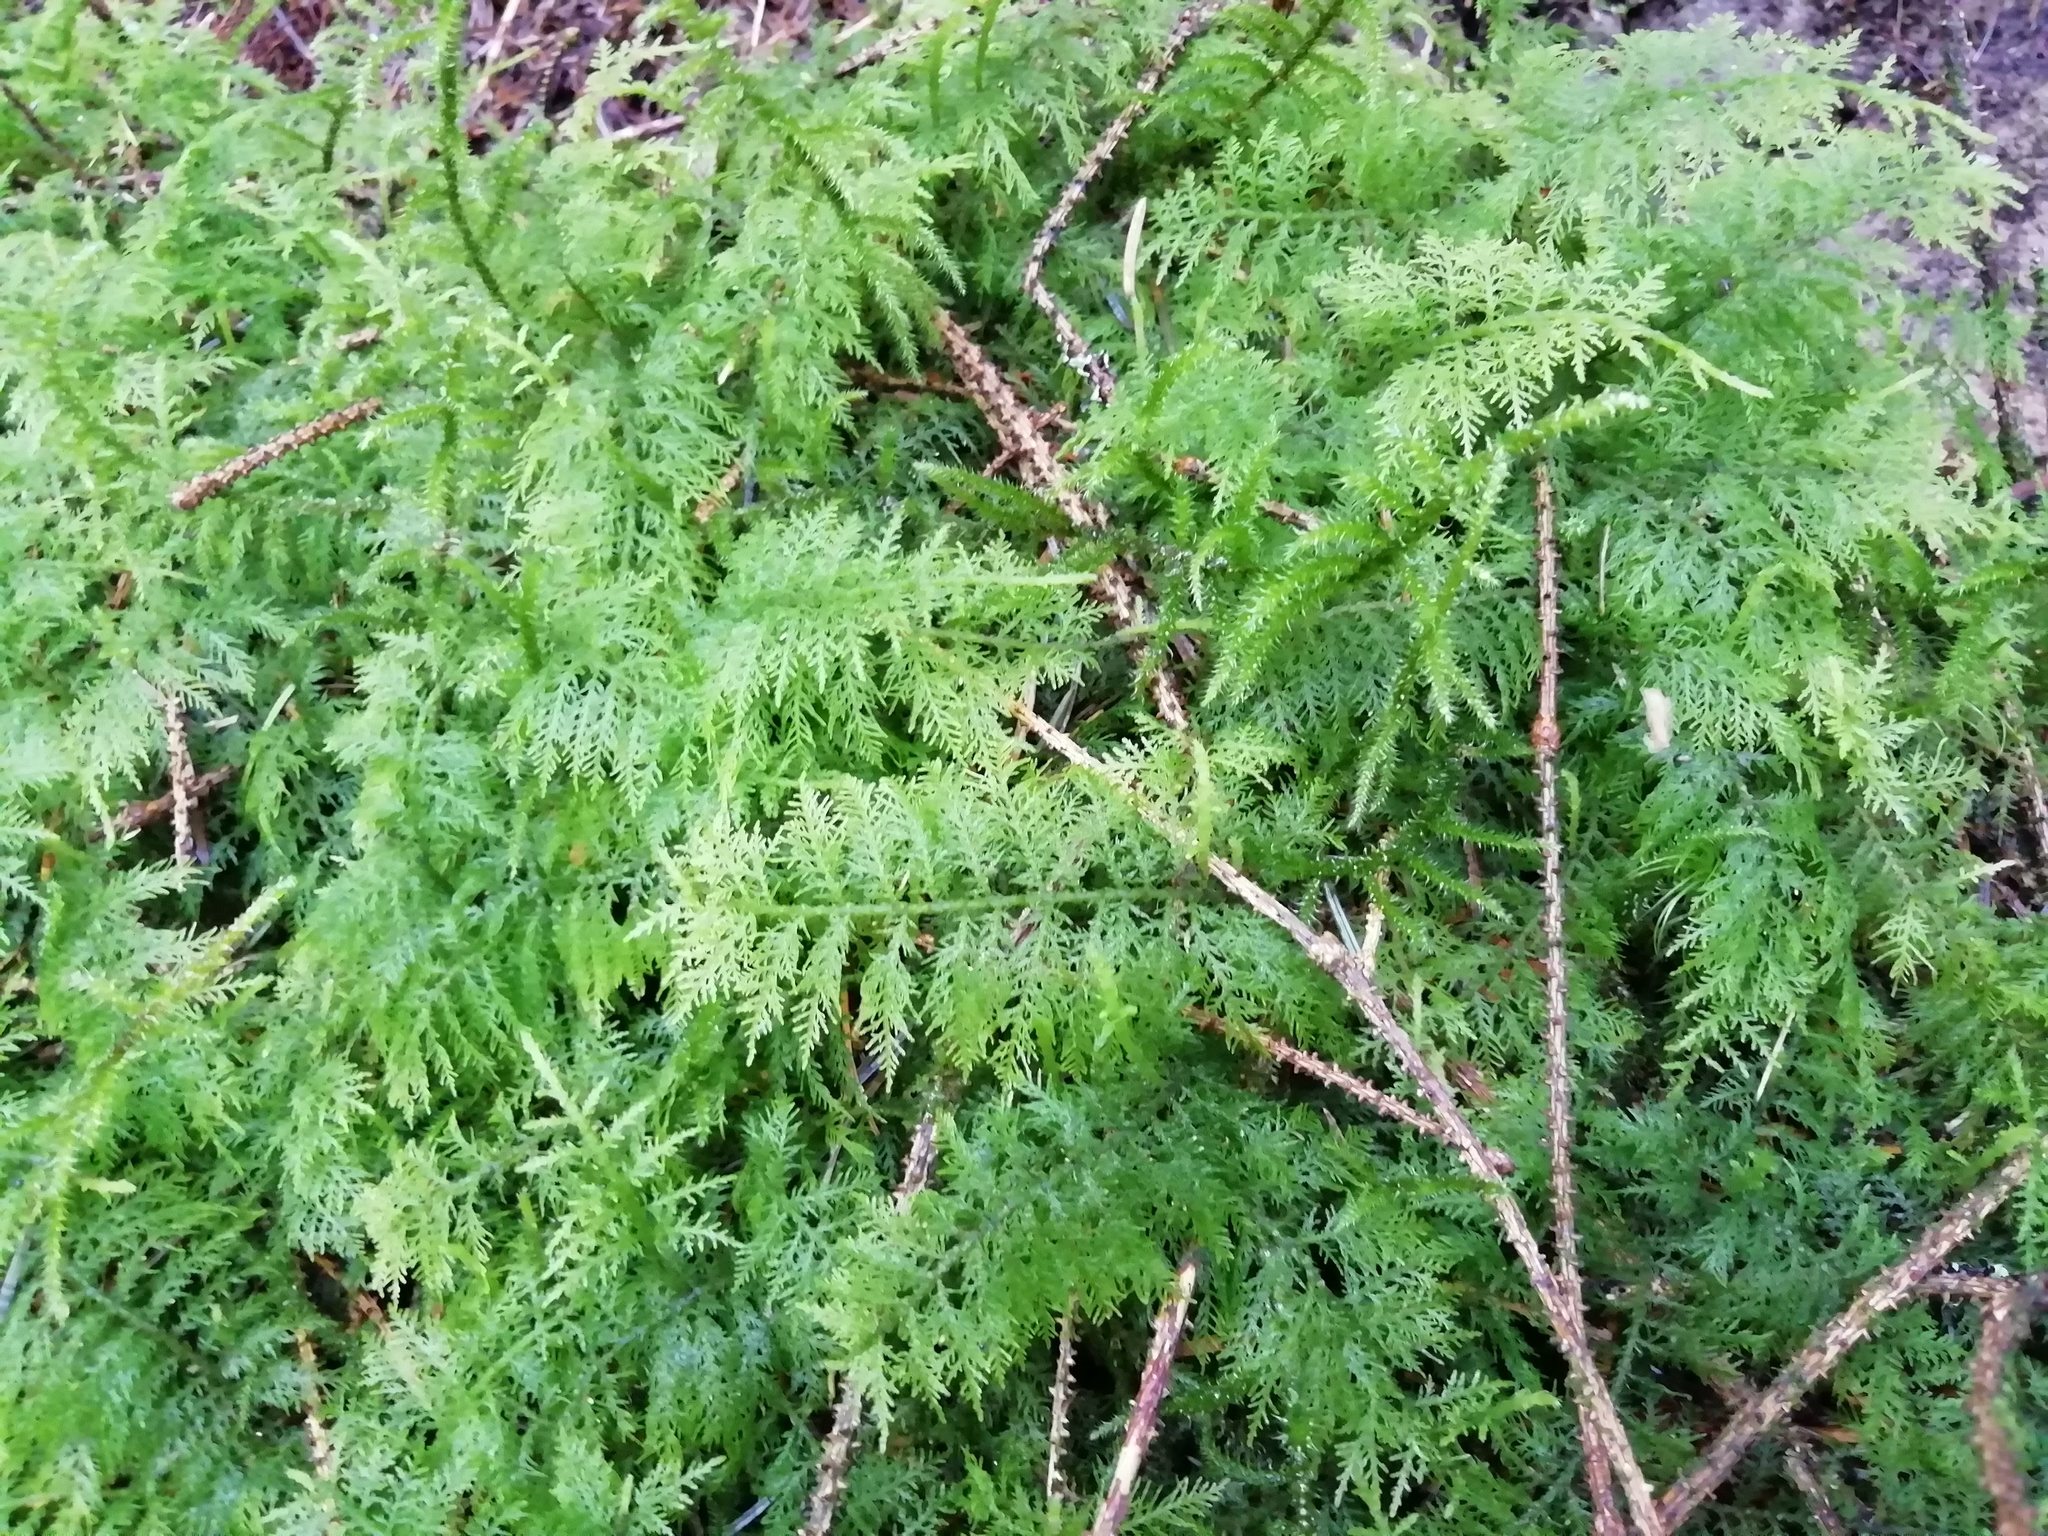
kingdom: Plantae
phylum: Bryophyta
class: Bryopsida
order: Hypnales
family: Thuidiaceae
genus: Thuidium
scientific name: Thuidium tamariscinum
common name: Common tamarisk-moss
